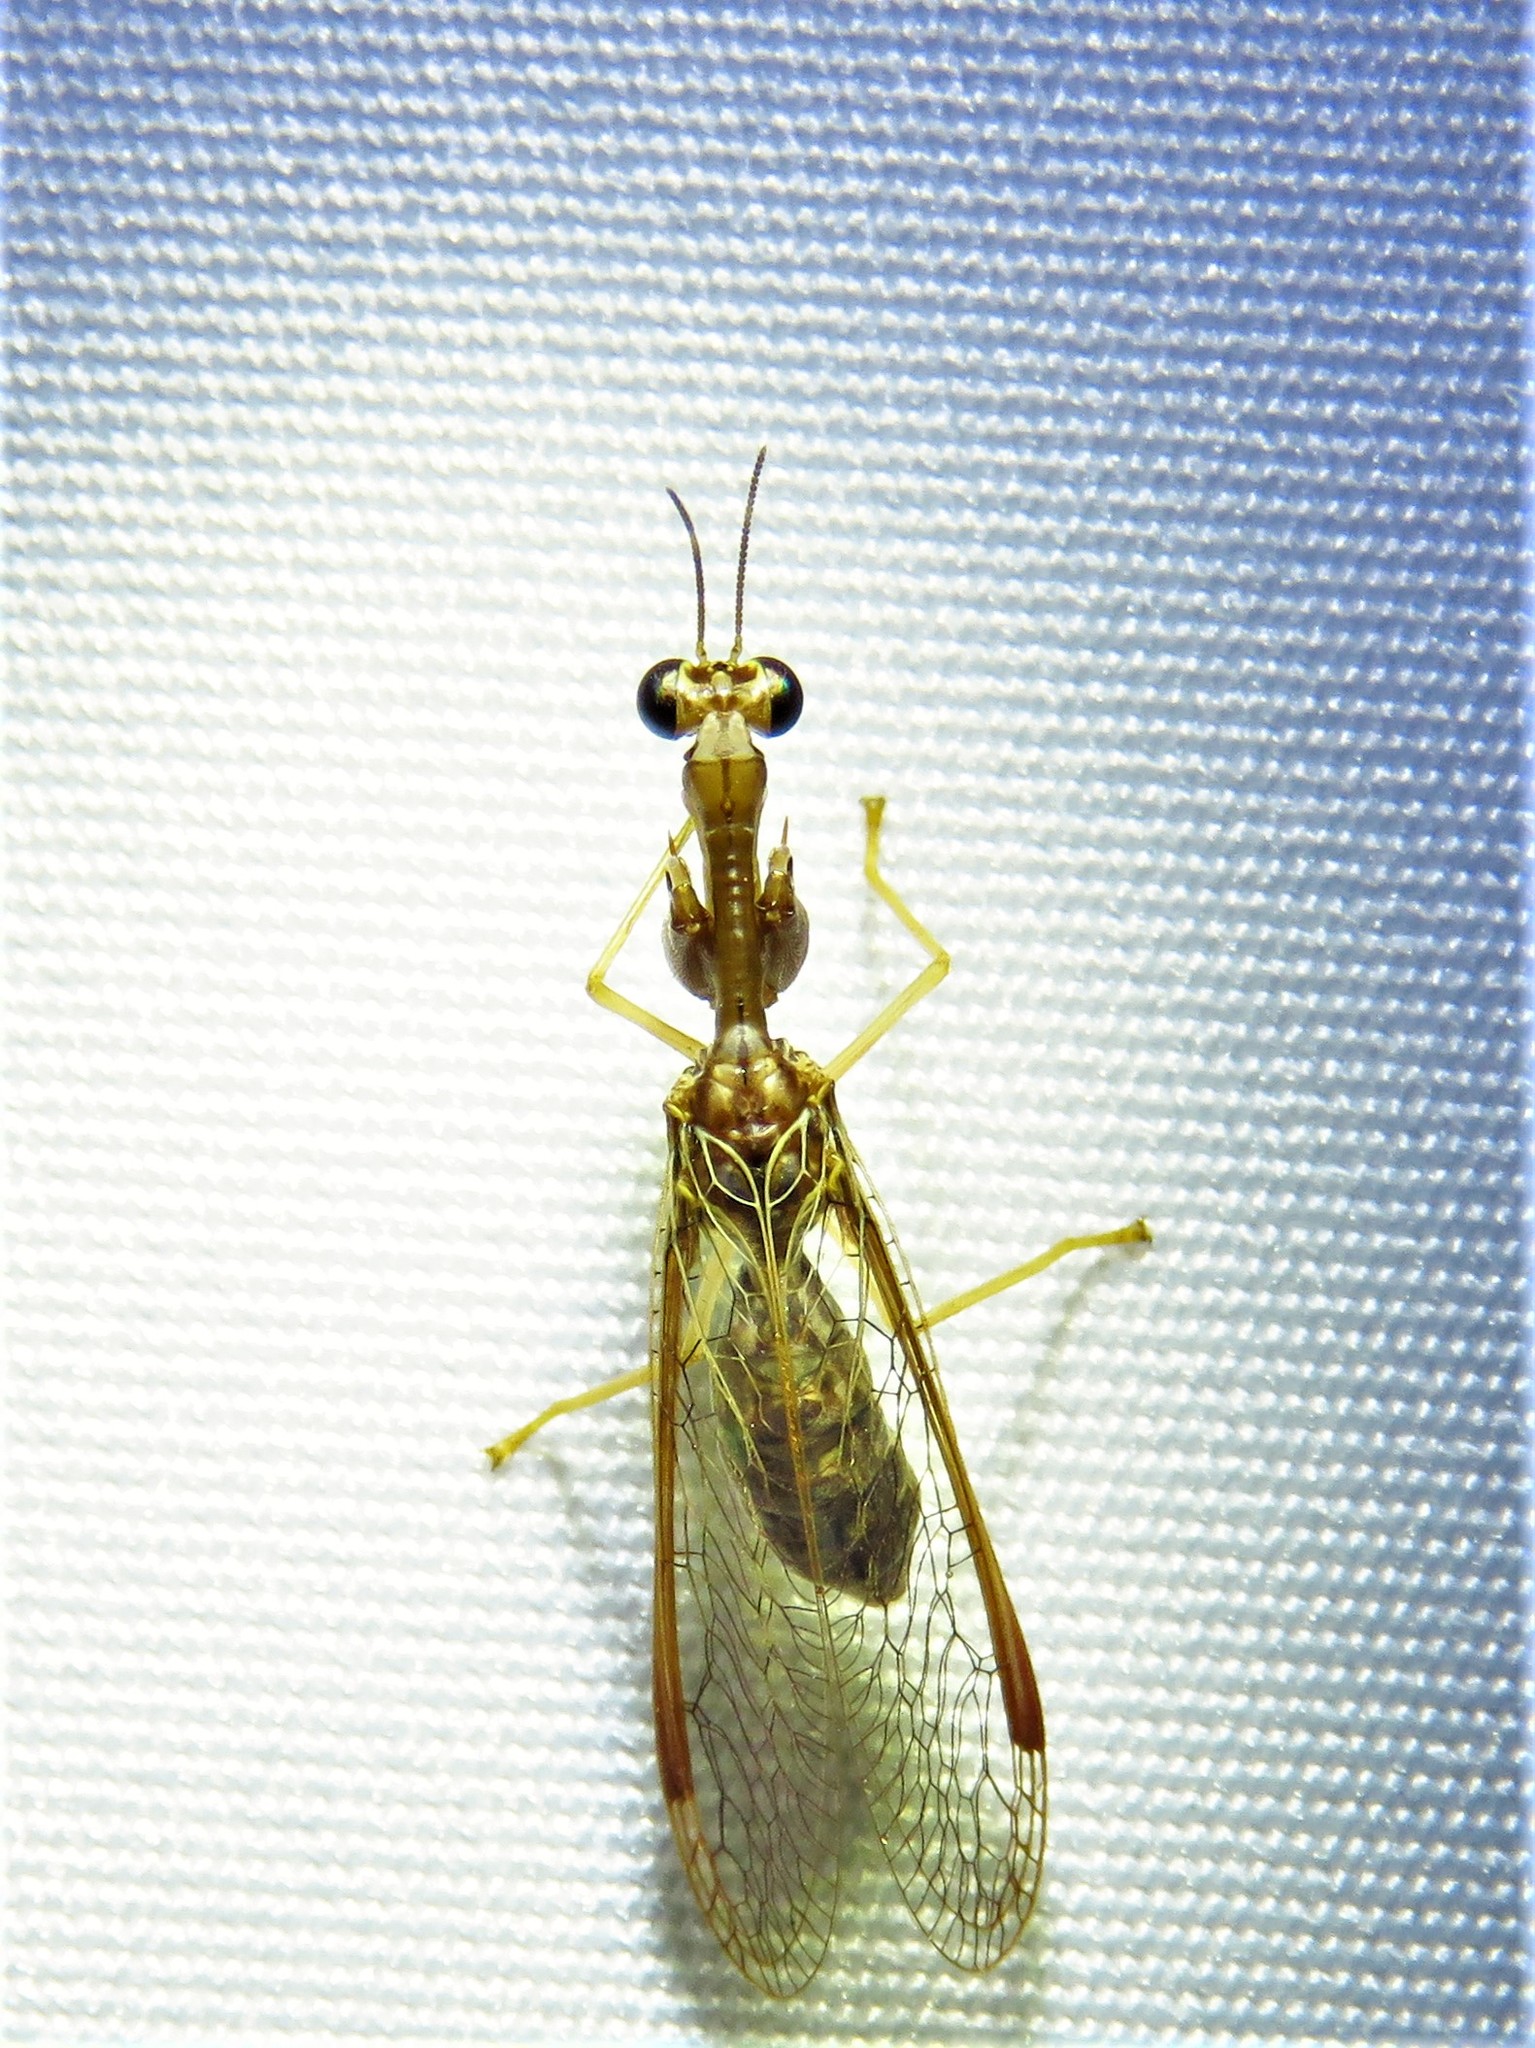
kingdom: Animalia
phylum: Arthropoda
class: Insecta
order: Neuroptera
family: Mantispidae
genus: Dicromantispa
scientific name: Dicromantispa sayi
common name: Say's mantidfly
